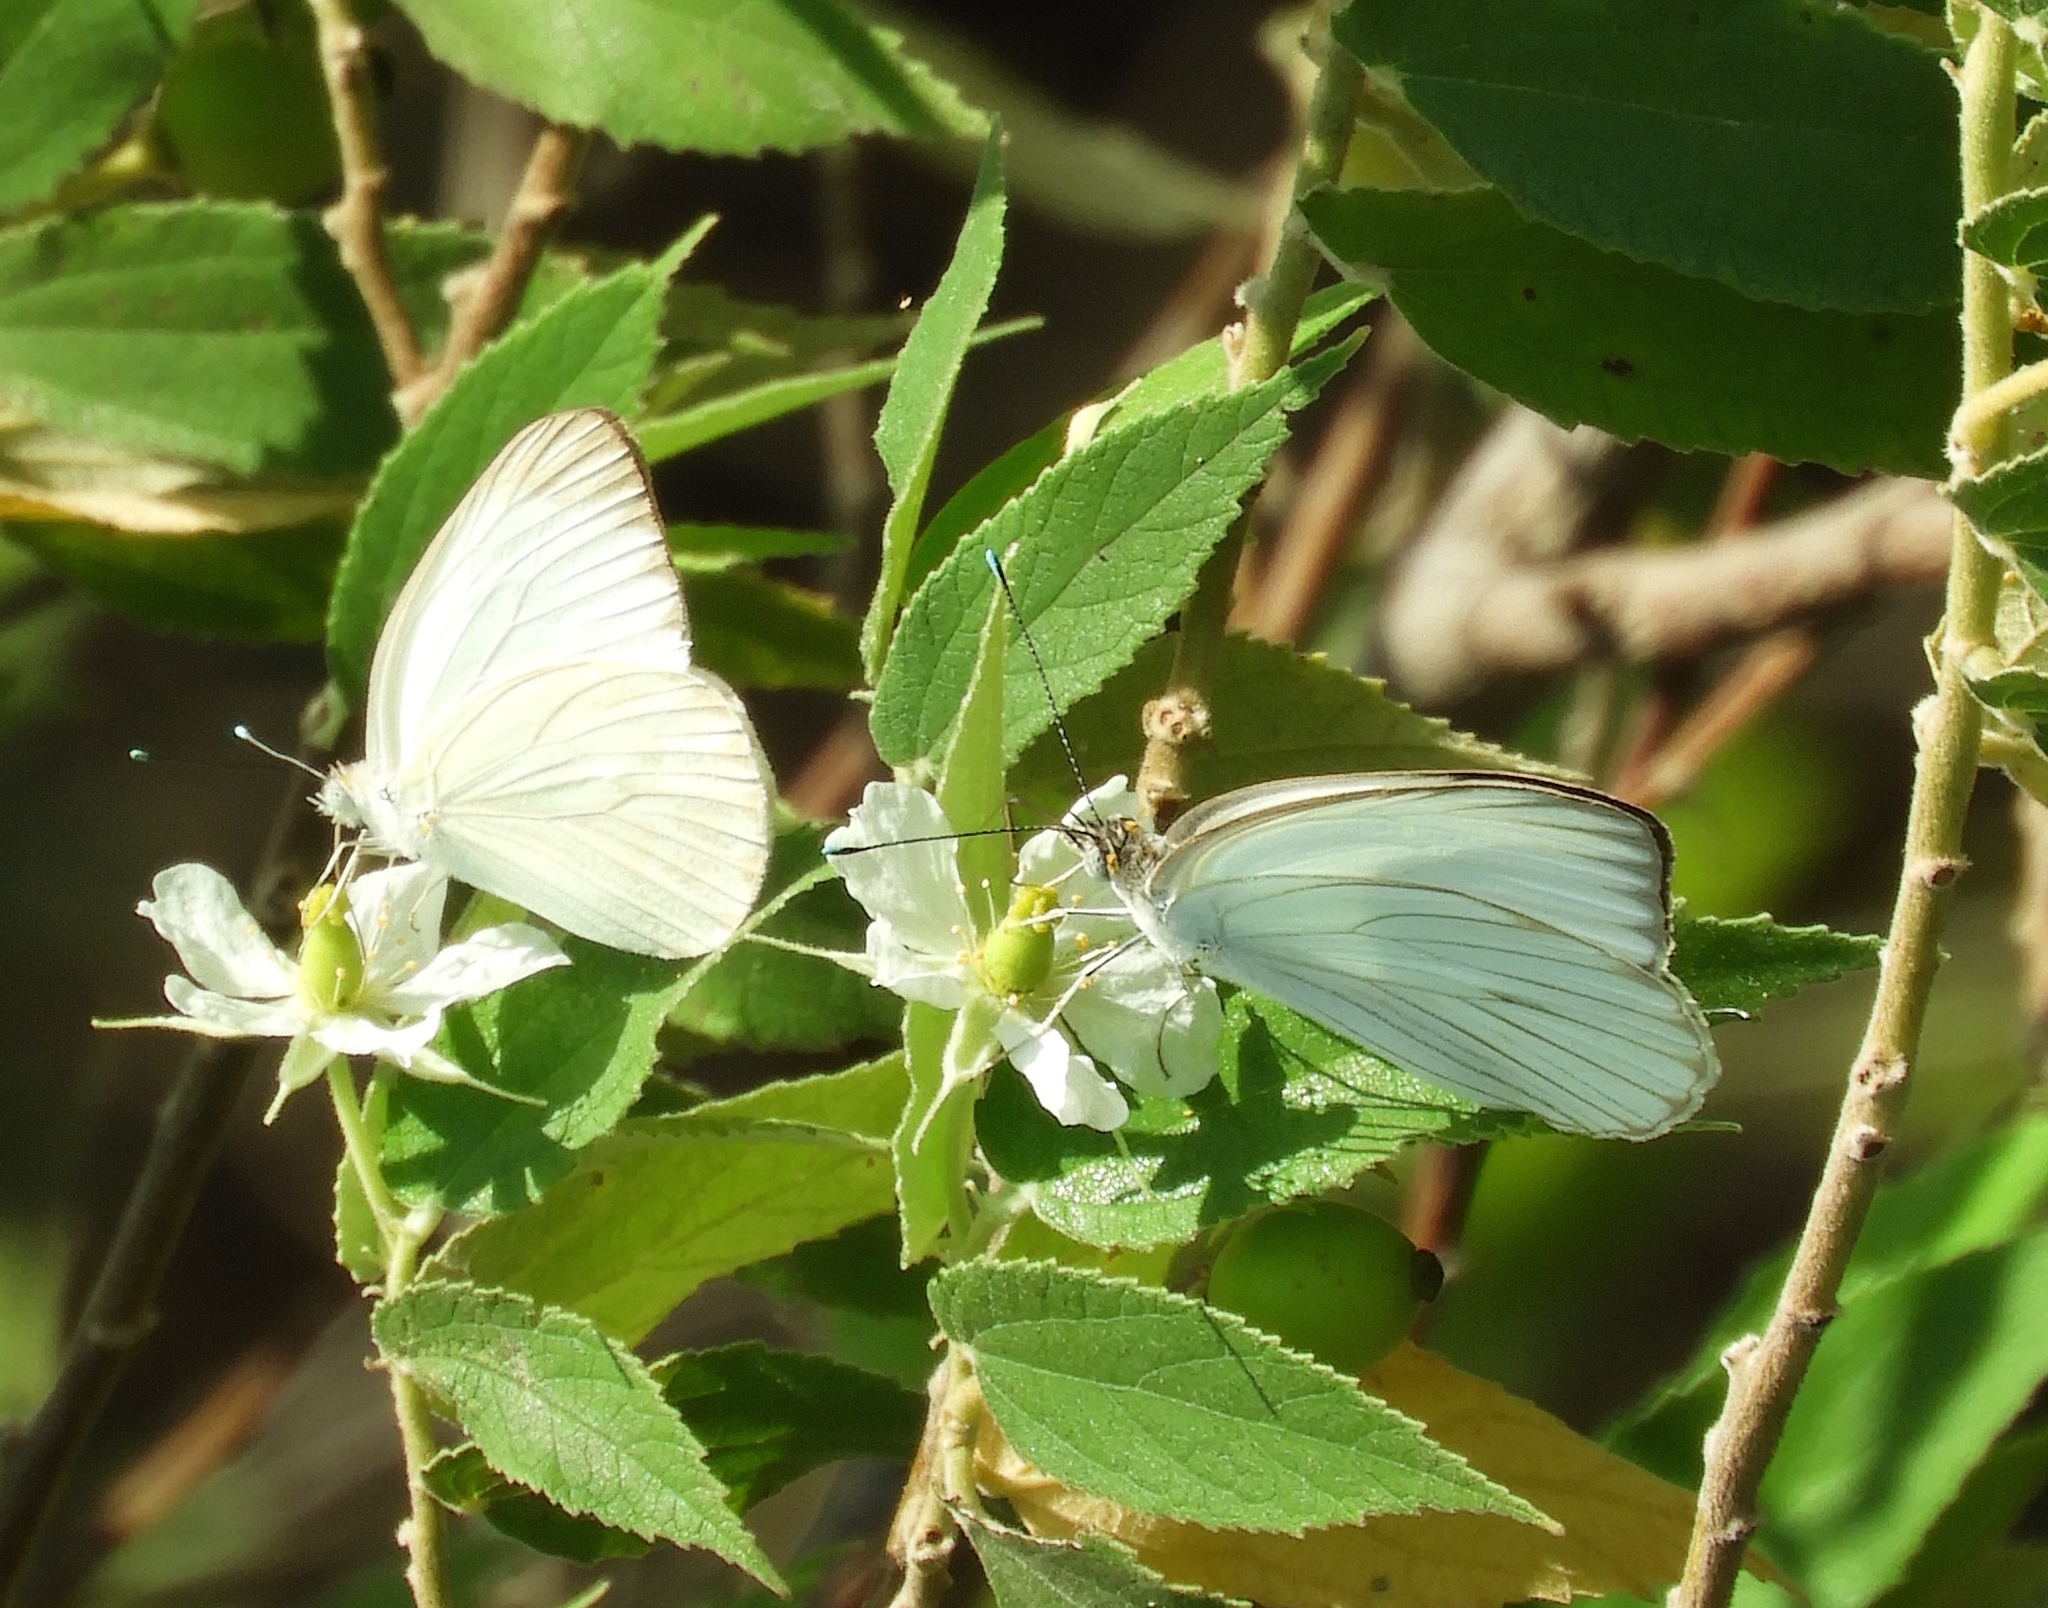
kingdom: Animalia
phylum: Arthropoda
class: Insecta
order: Lepidoptera
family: Pieridae
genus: Ascia
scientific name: Ascia monuste
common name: Great southern white
